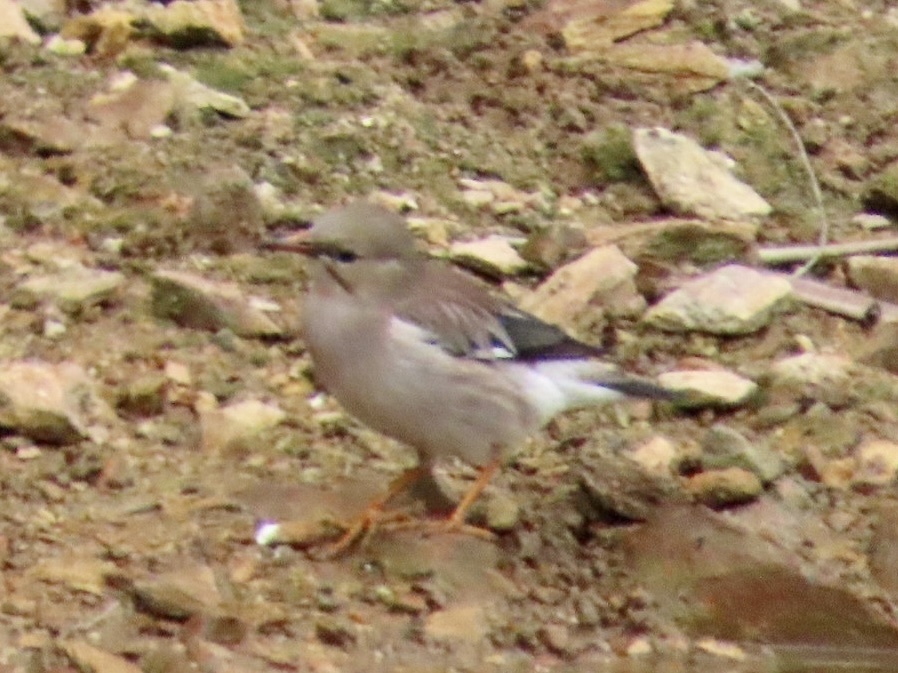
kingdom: Animalia
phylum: Chordata
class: Aves
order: Passeriformes
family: Sturnidae
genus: Spodiopsar
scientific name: Spodiopsar sericeus
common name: Red-billed starling
